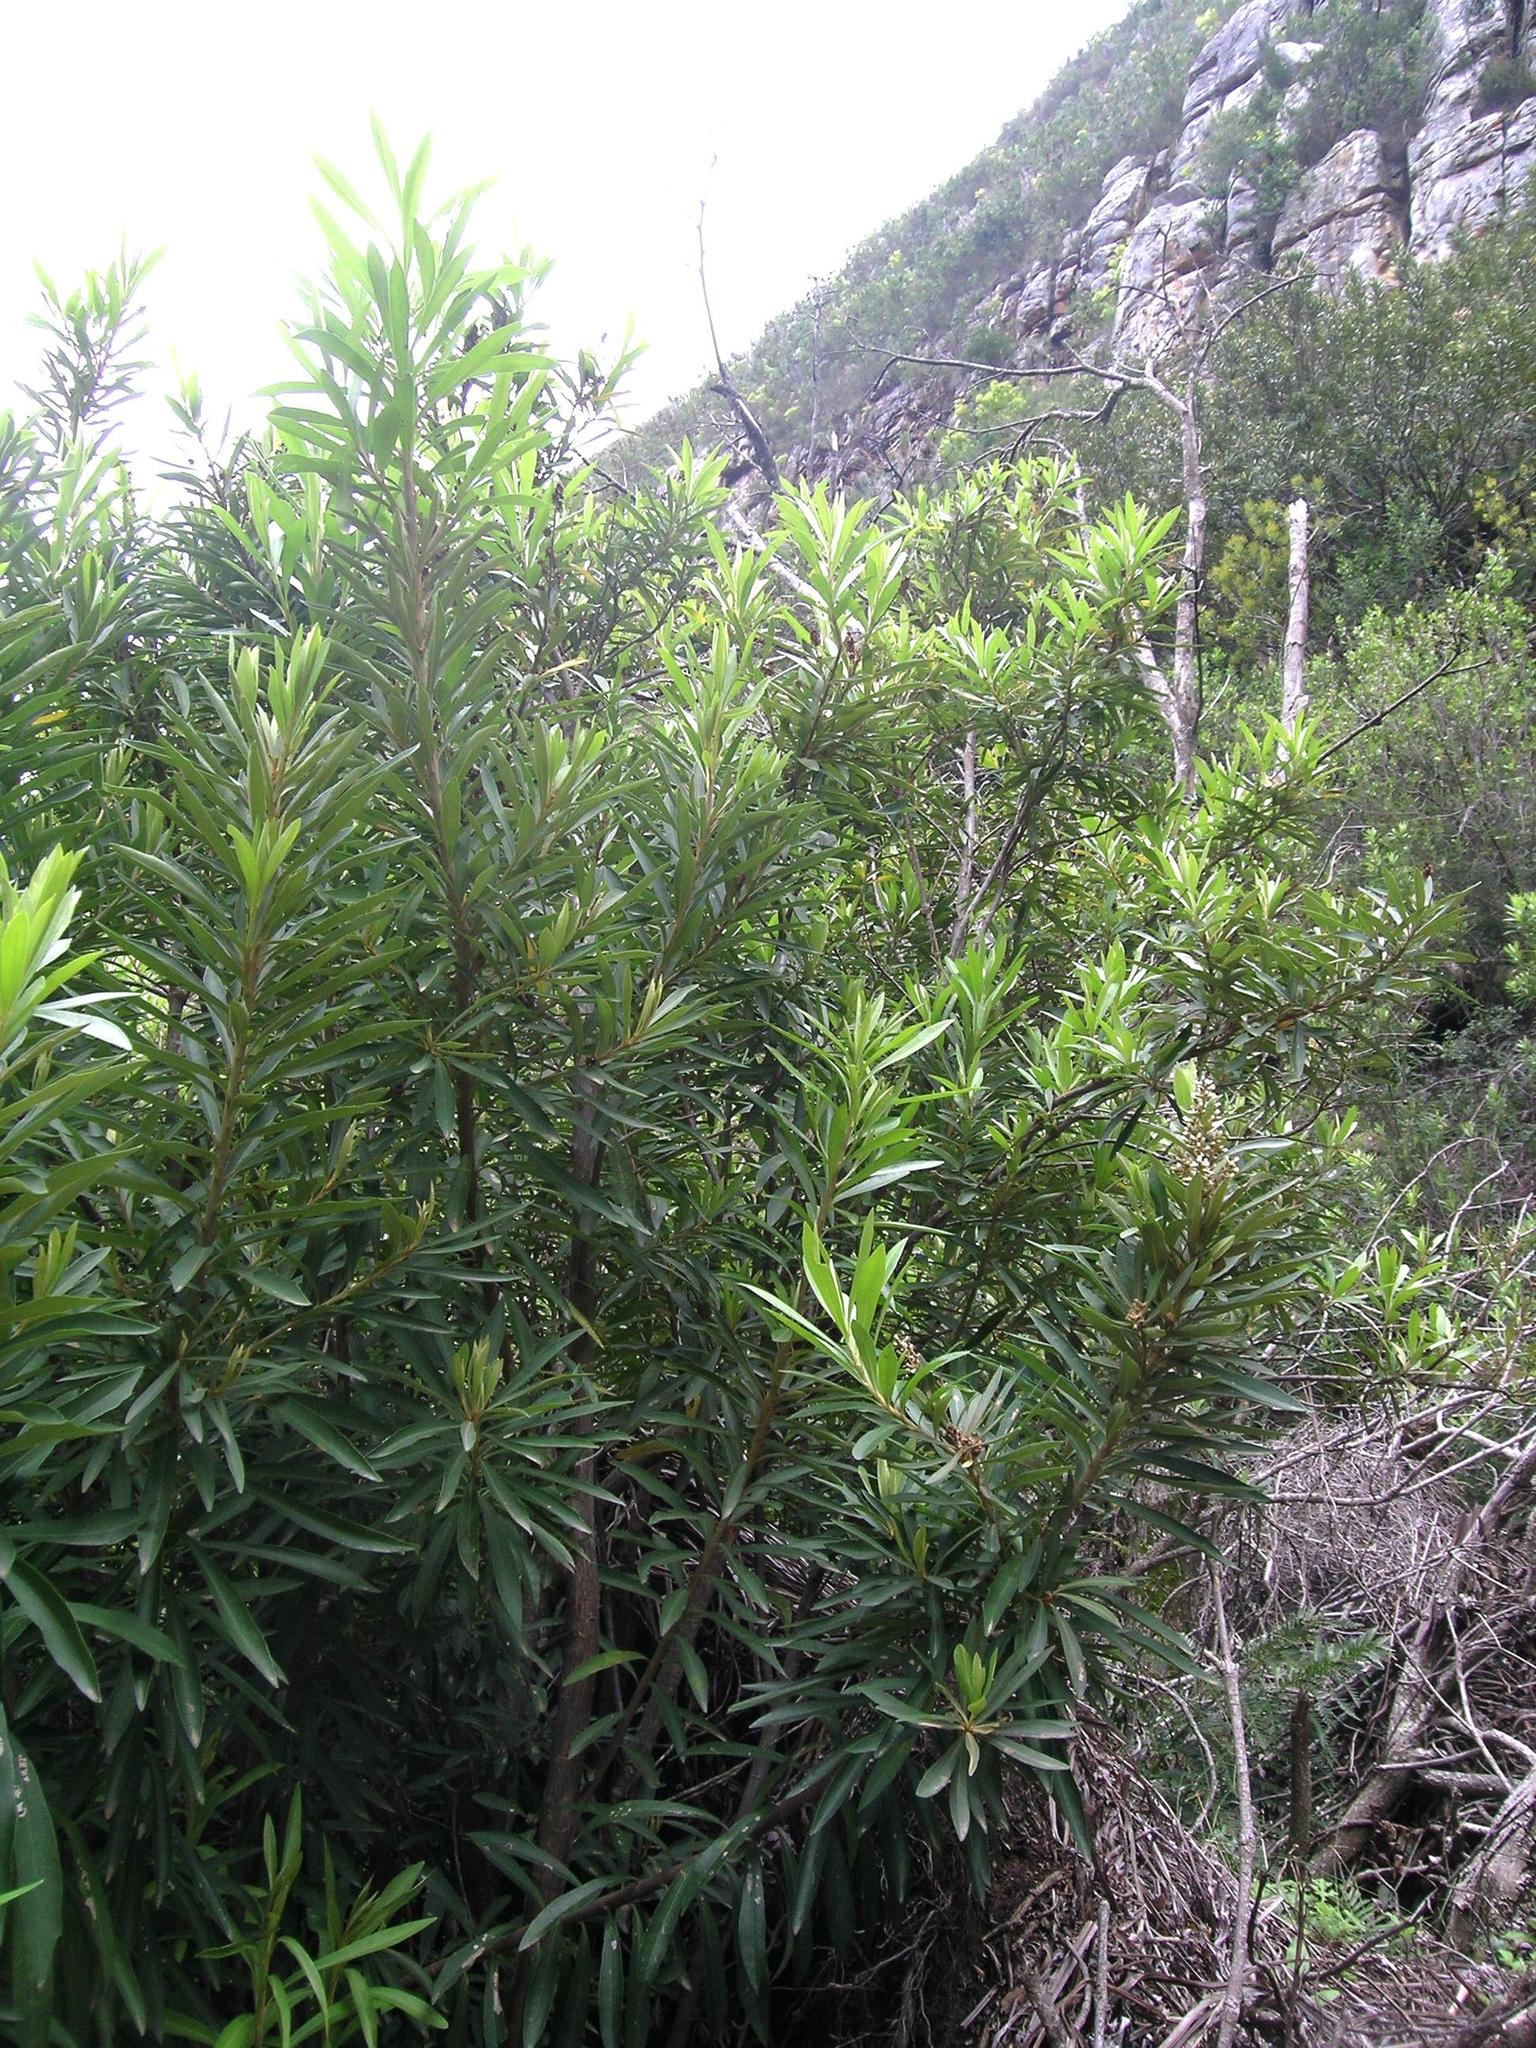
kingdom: Plantae
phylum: Tracheophyta
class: Magnoliopsida
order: Asterales
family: Asteraceae
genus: Brachylaena
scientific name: Brachylaena neriifolia
